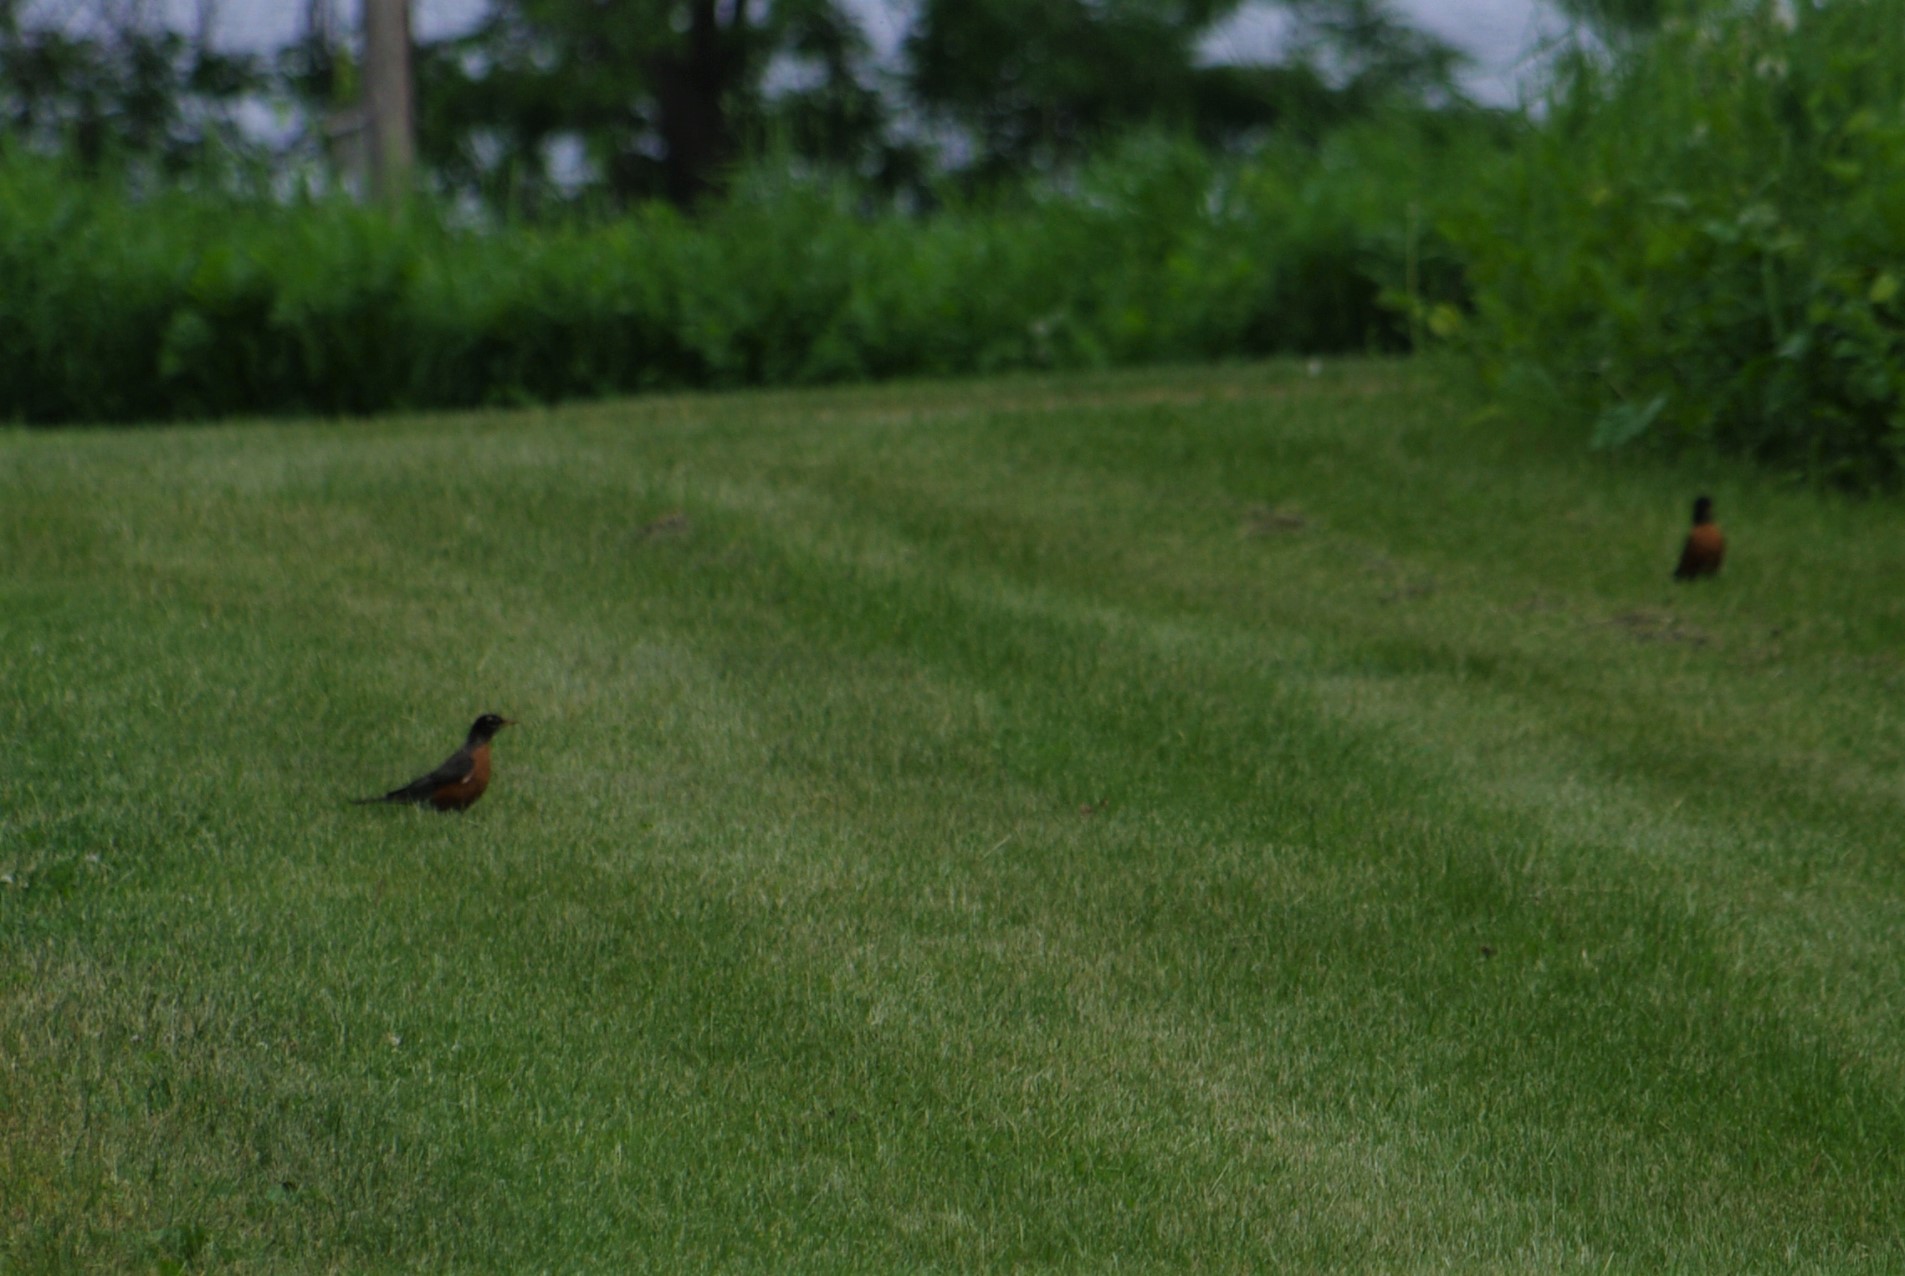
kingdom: Animalia
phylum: Chordata
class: Aves
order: Passeriformes
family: Turdidae
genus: Turdus
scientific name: Turdus migratorius
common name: American robin
